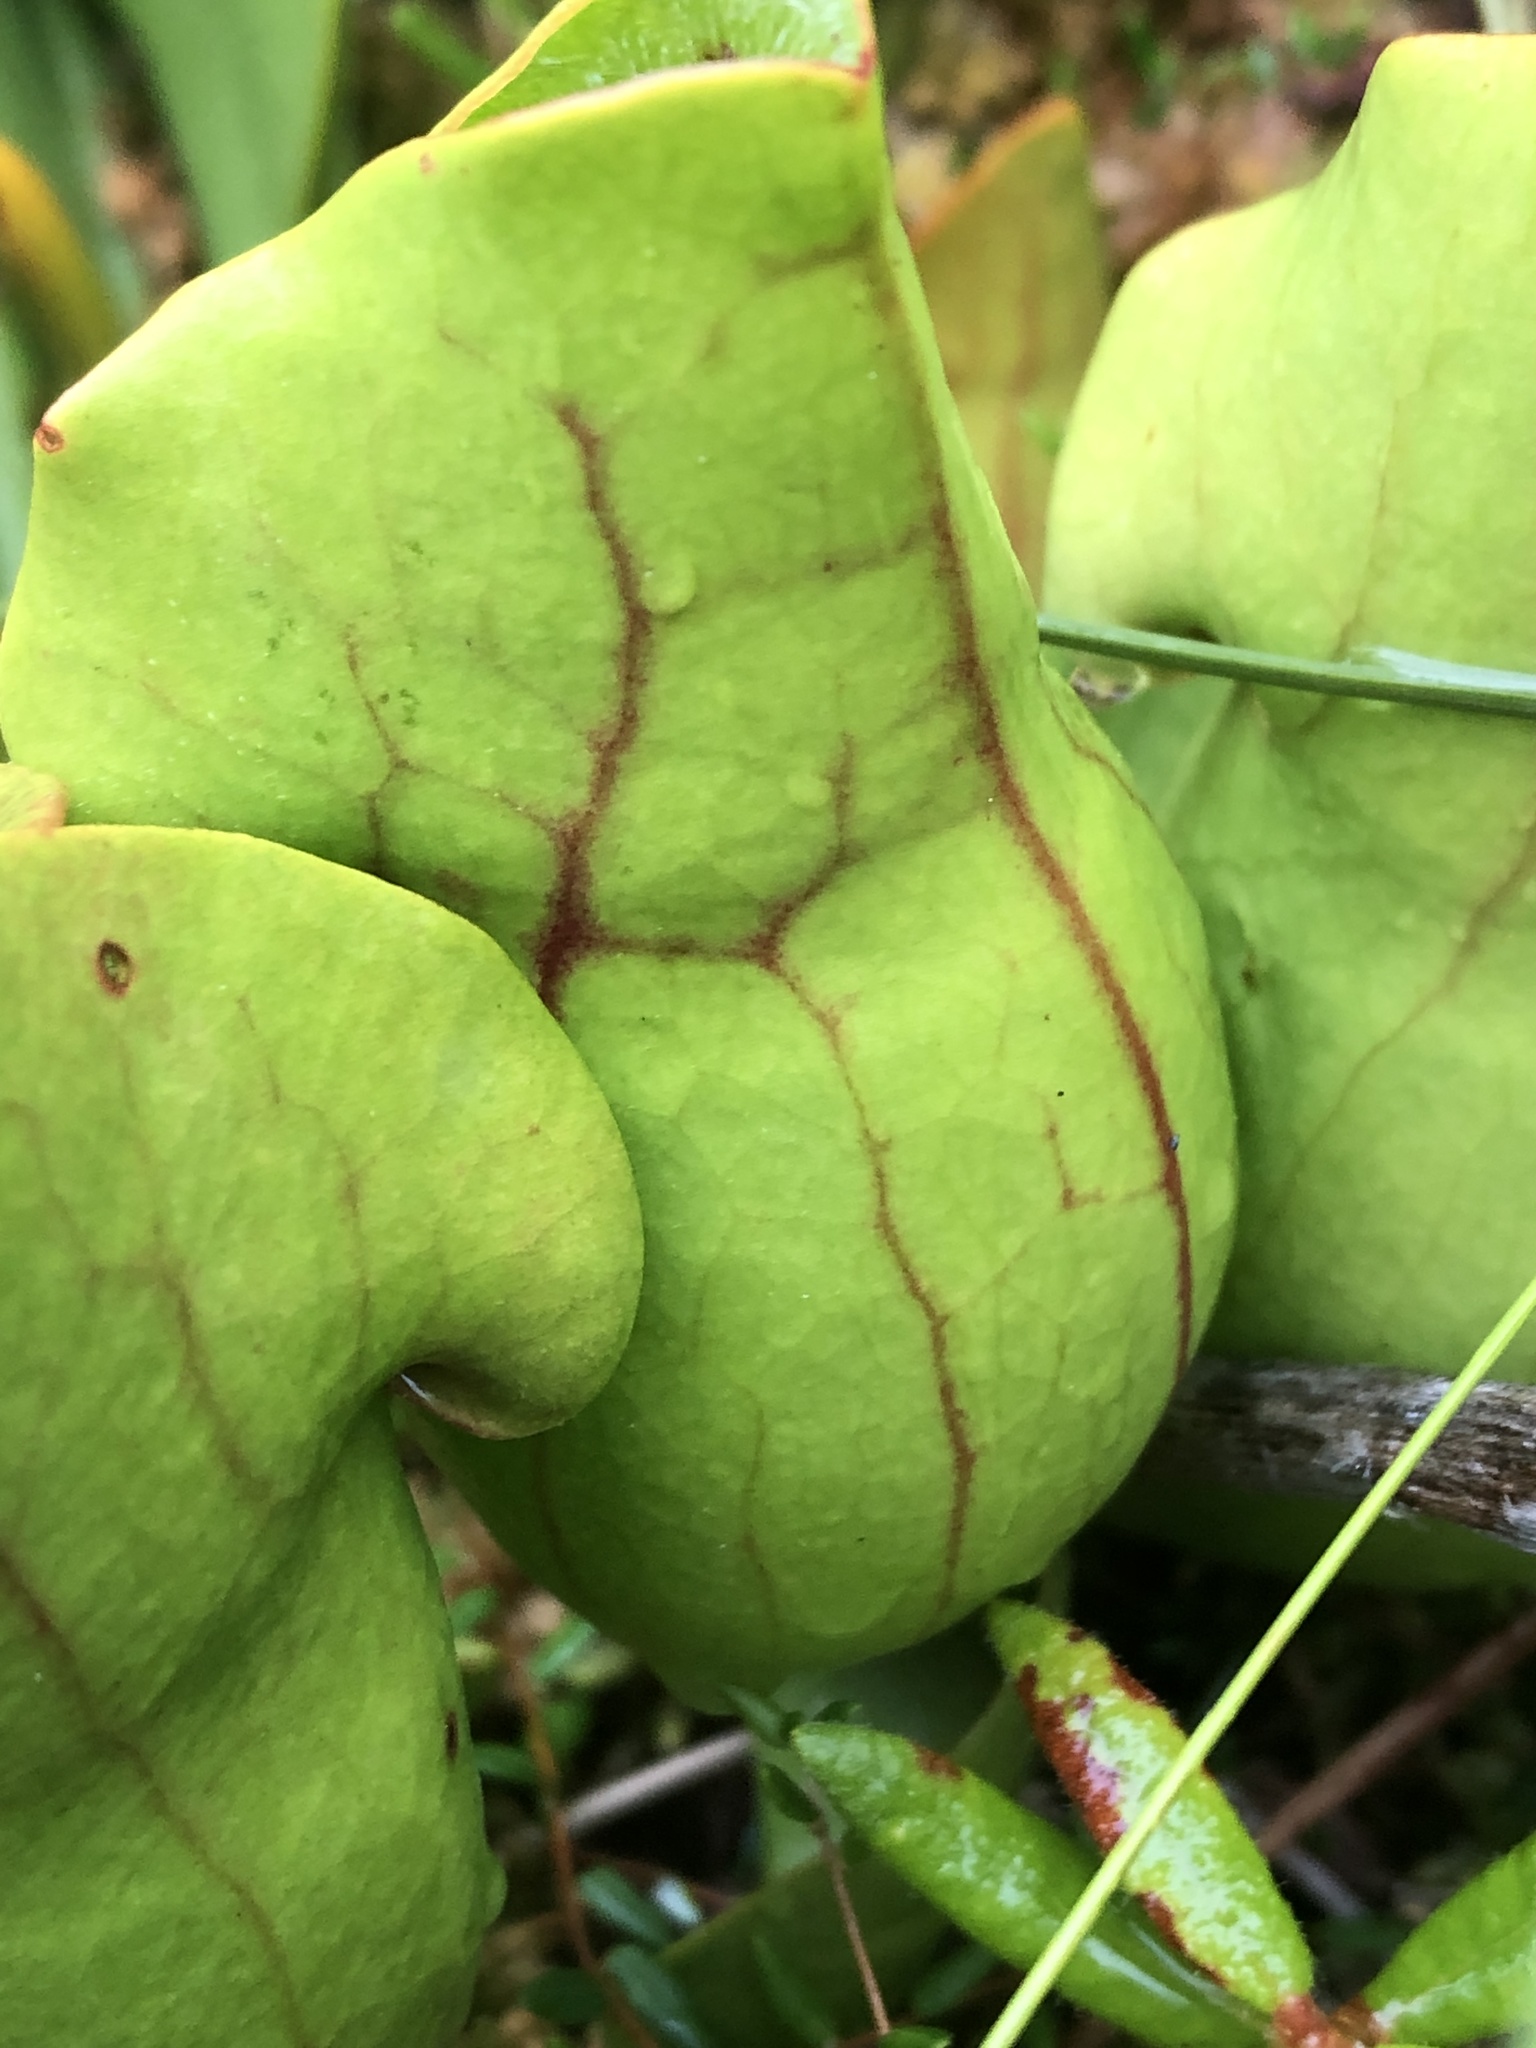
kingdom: Plantae
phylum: Tracheophyta
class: Magnoliopsida
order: Ericales
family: Sarraceniaceae
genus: Sarracenia
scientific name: Sarracenia purpurea
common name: Pitcherplant
